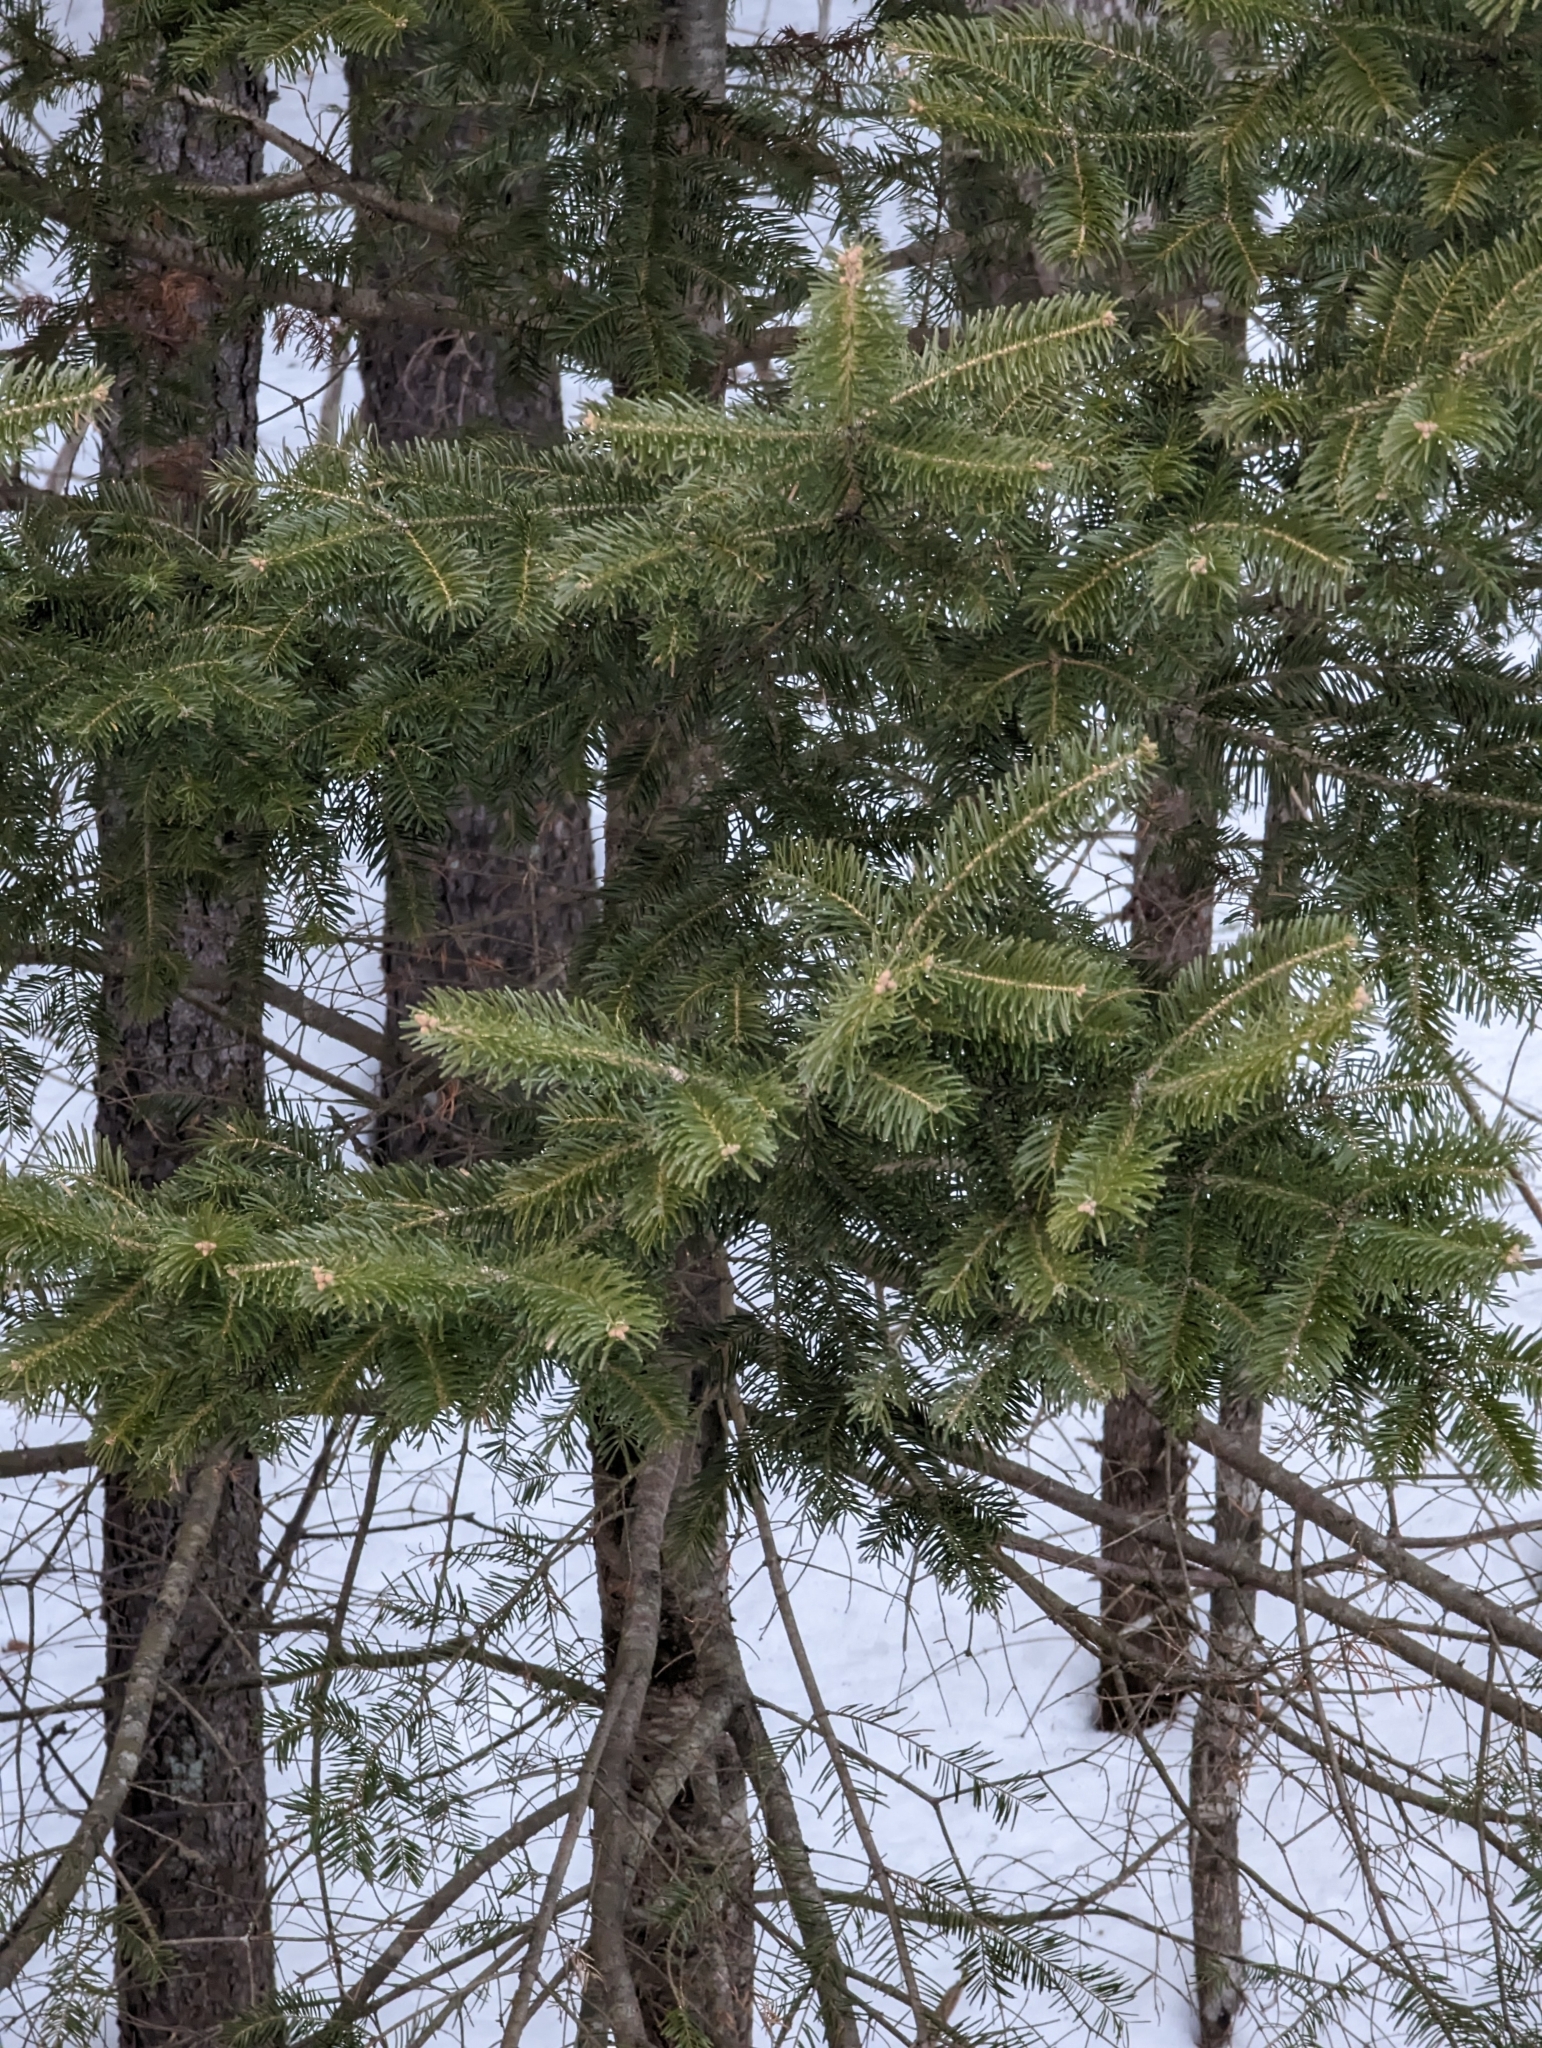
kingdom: Plantae
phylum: Tracheophyta
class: Pinopsida
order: Pinales
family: Pinaceae
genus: Abies
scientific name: Abies balsamea
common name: Balsam fir
